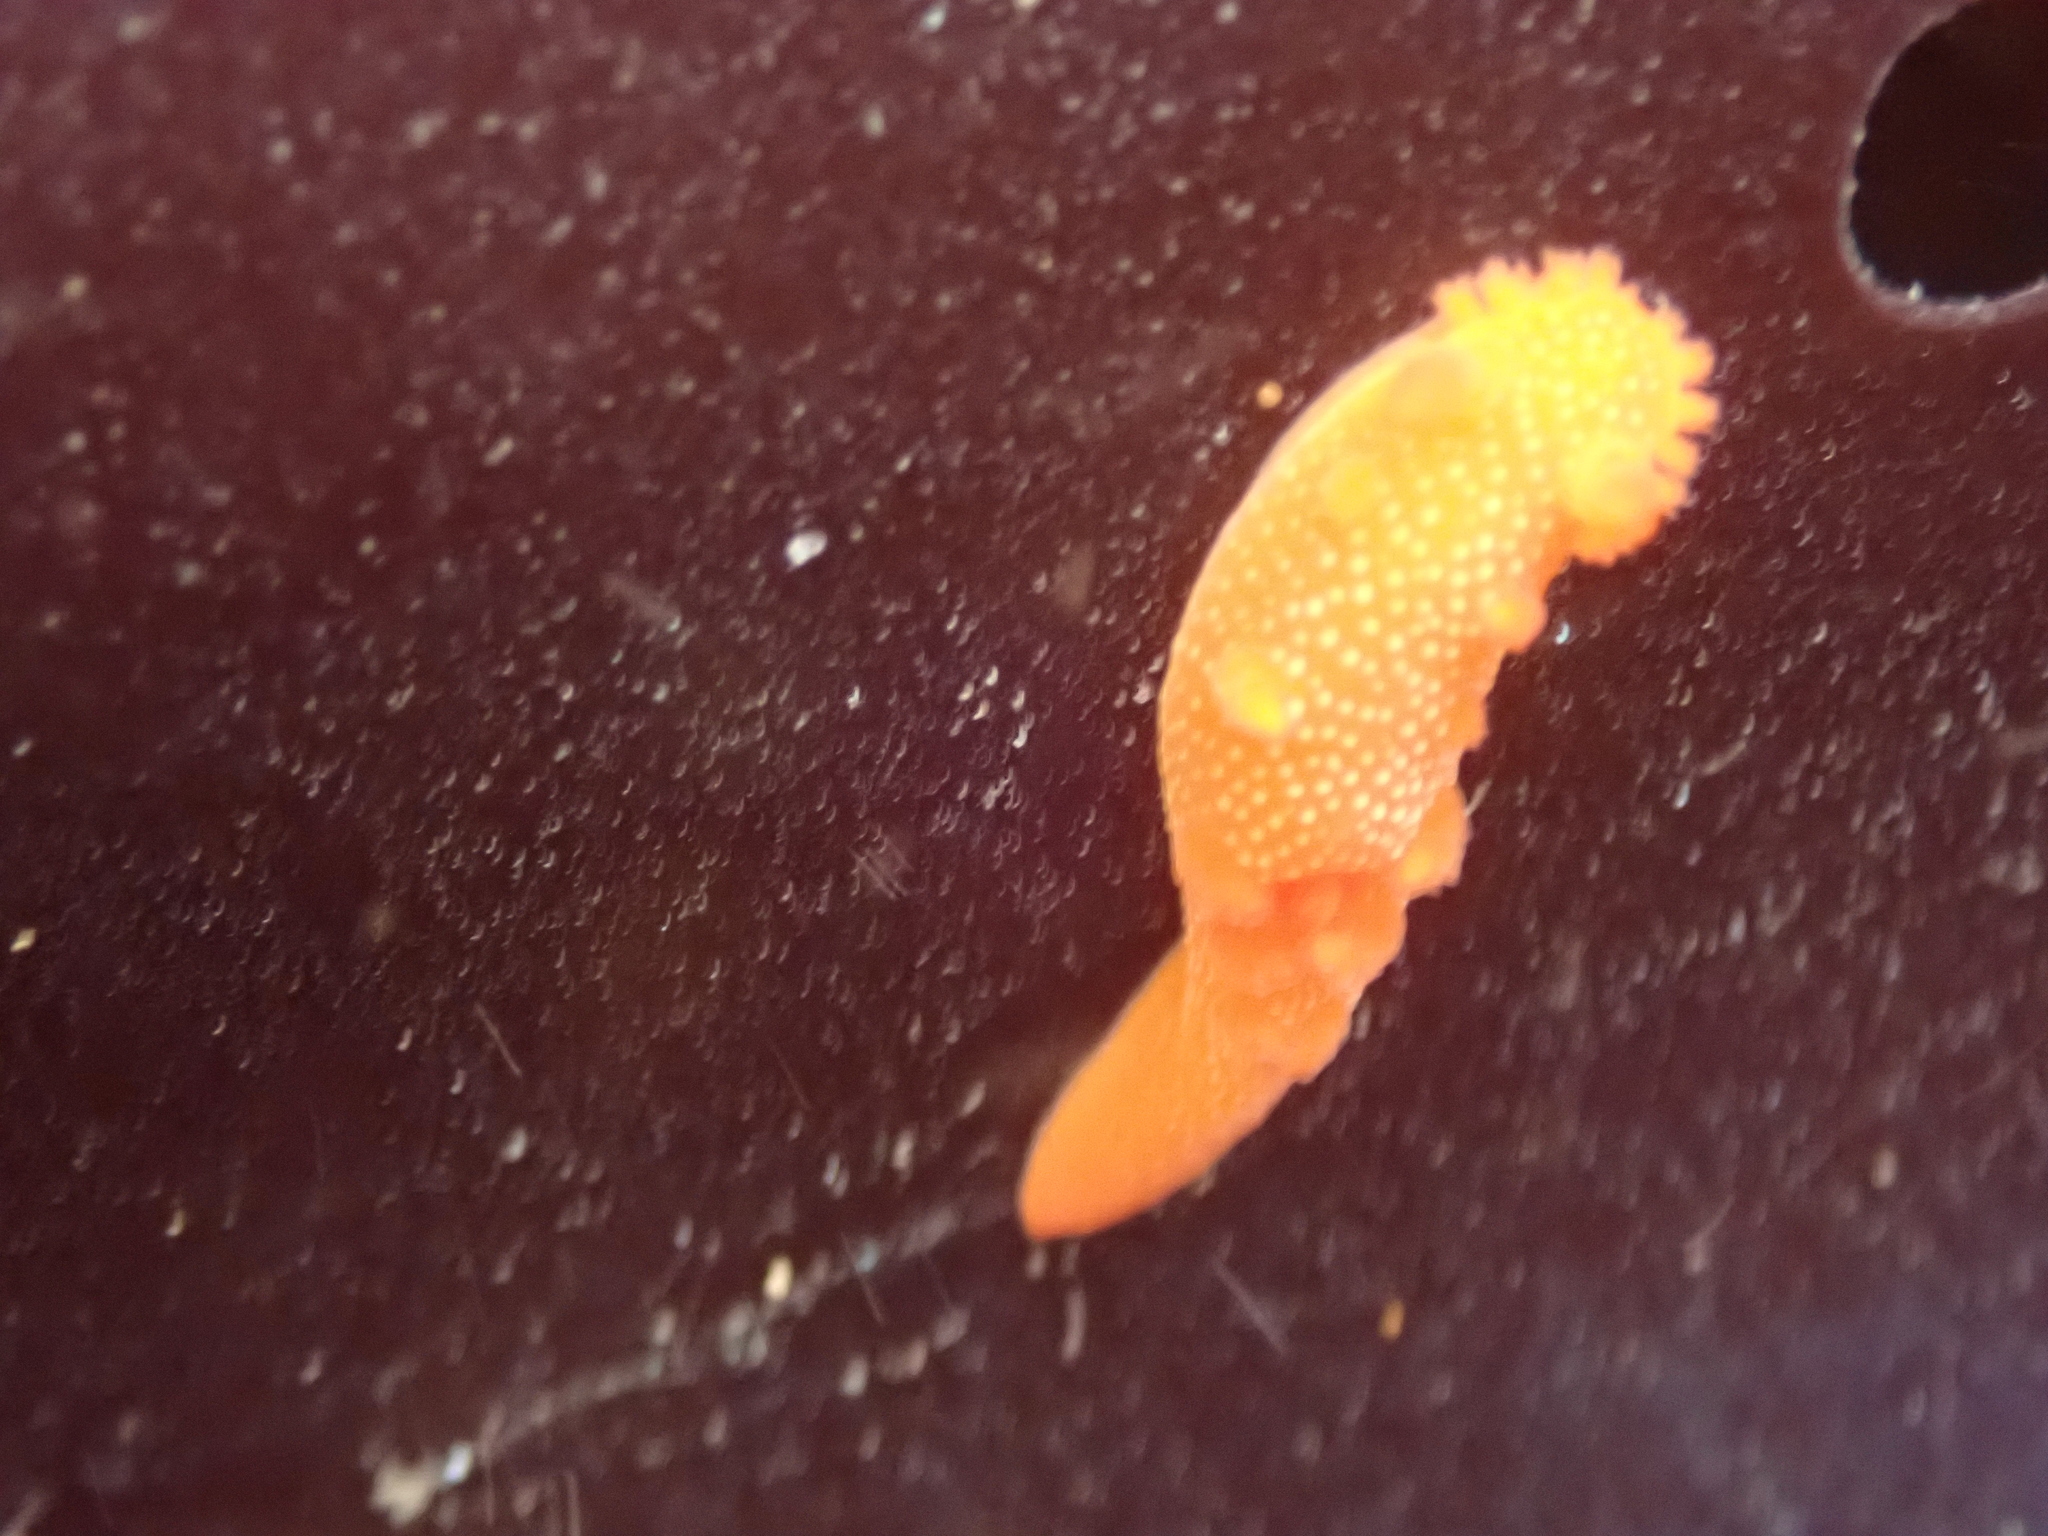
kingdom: Animalia
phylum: Mollusca
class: Gastropoda
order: Nudibranchia
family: Polyceridae
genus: Triopha
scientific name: Triopha maculata
